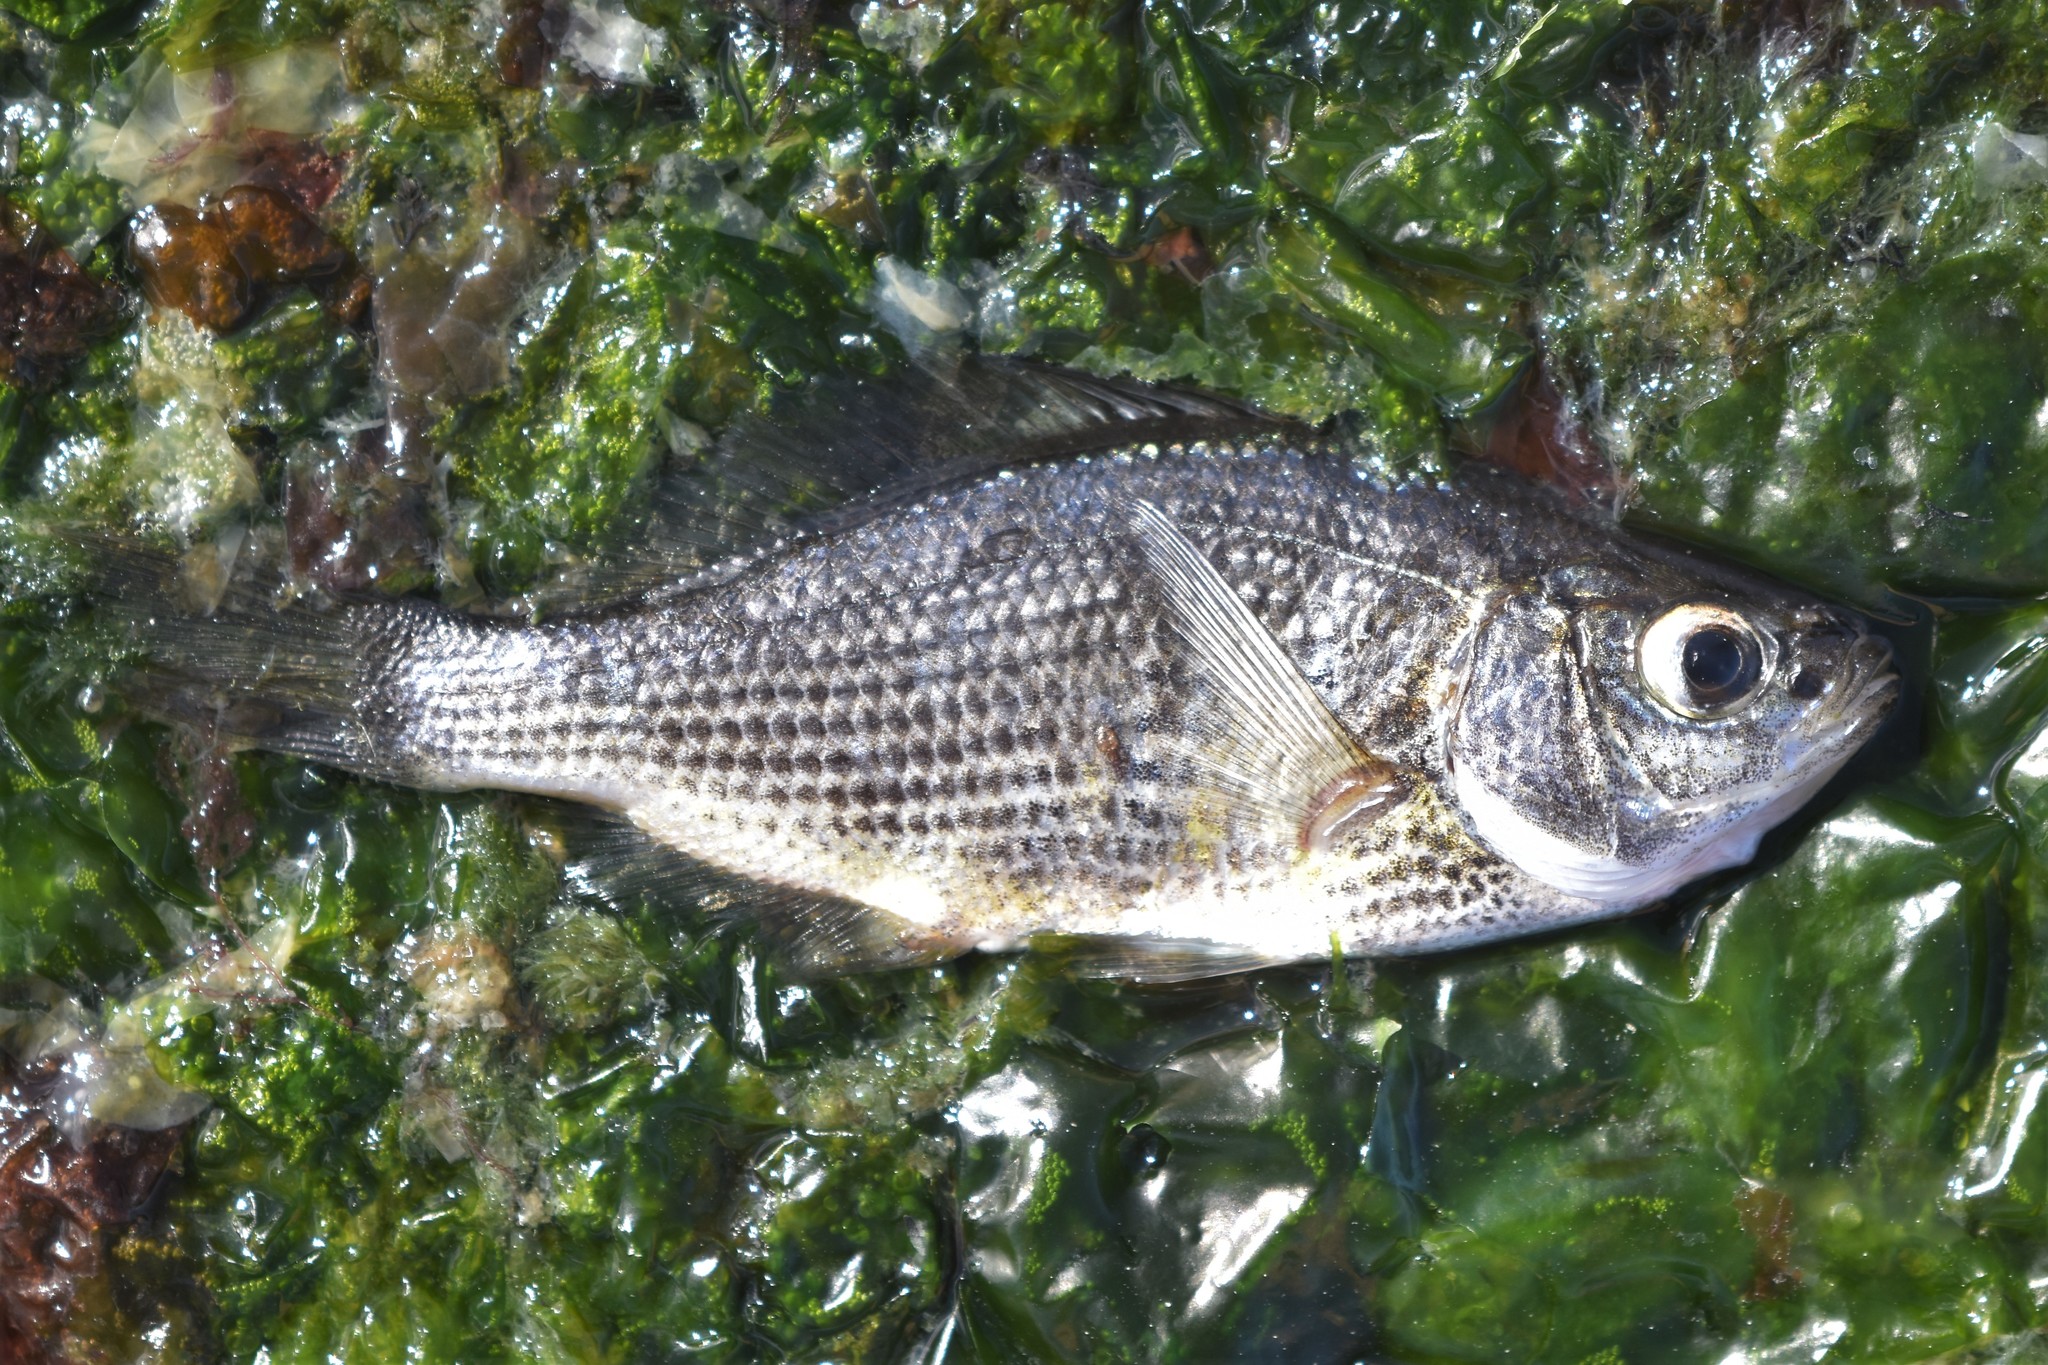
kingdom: Animalia
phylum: Chordata
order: Perciformes
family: Embiotocidae
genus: Cymatogaster
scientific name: Cymatogaster aggregata
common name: Shiner perch
